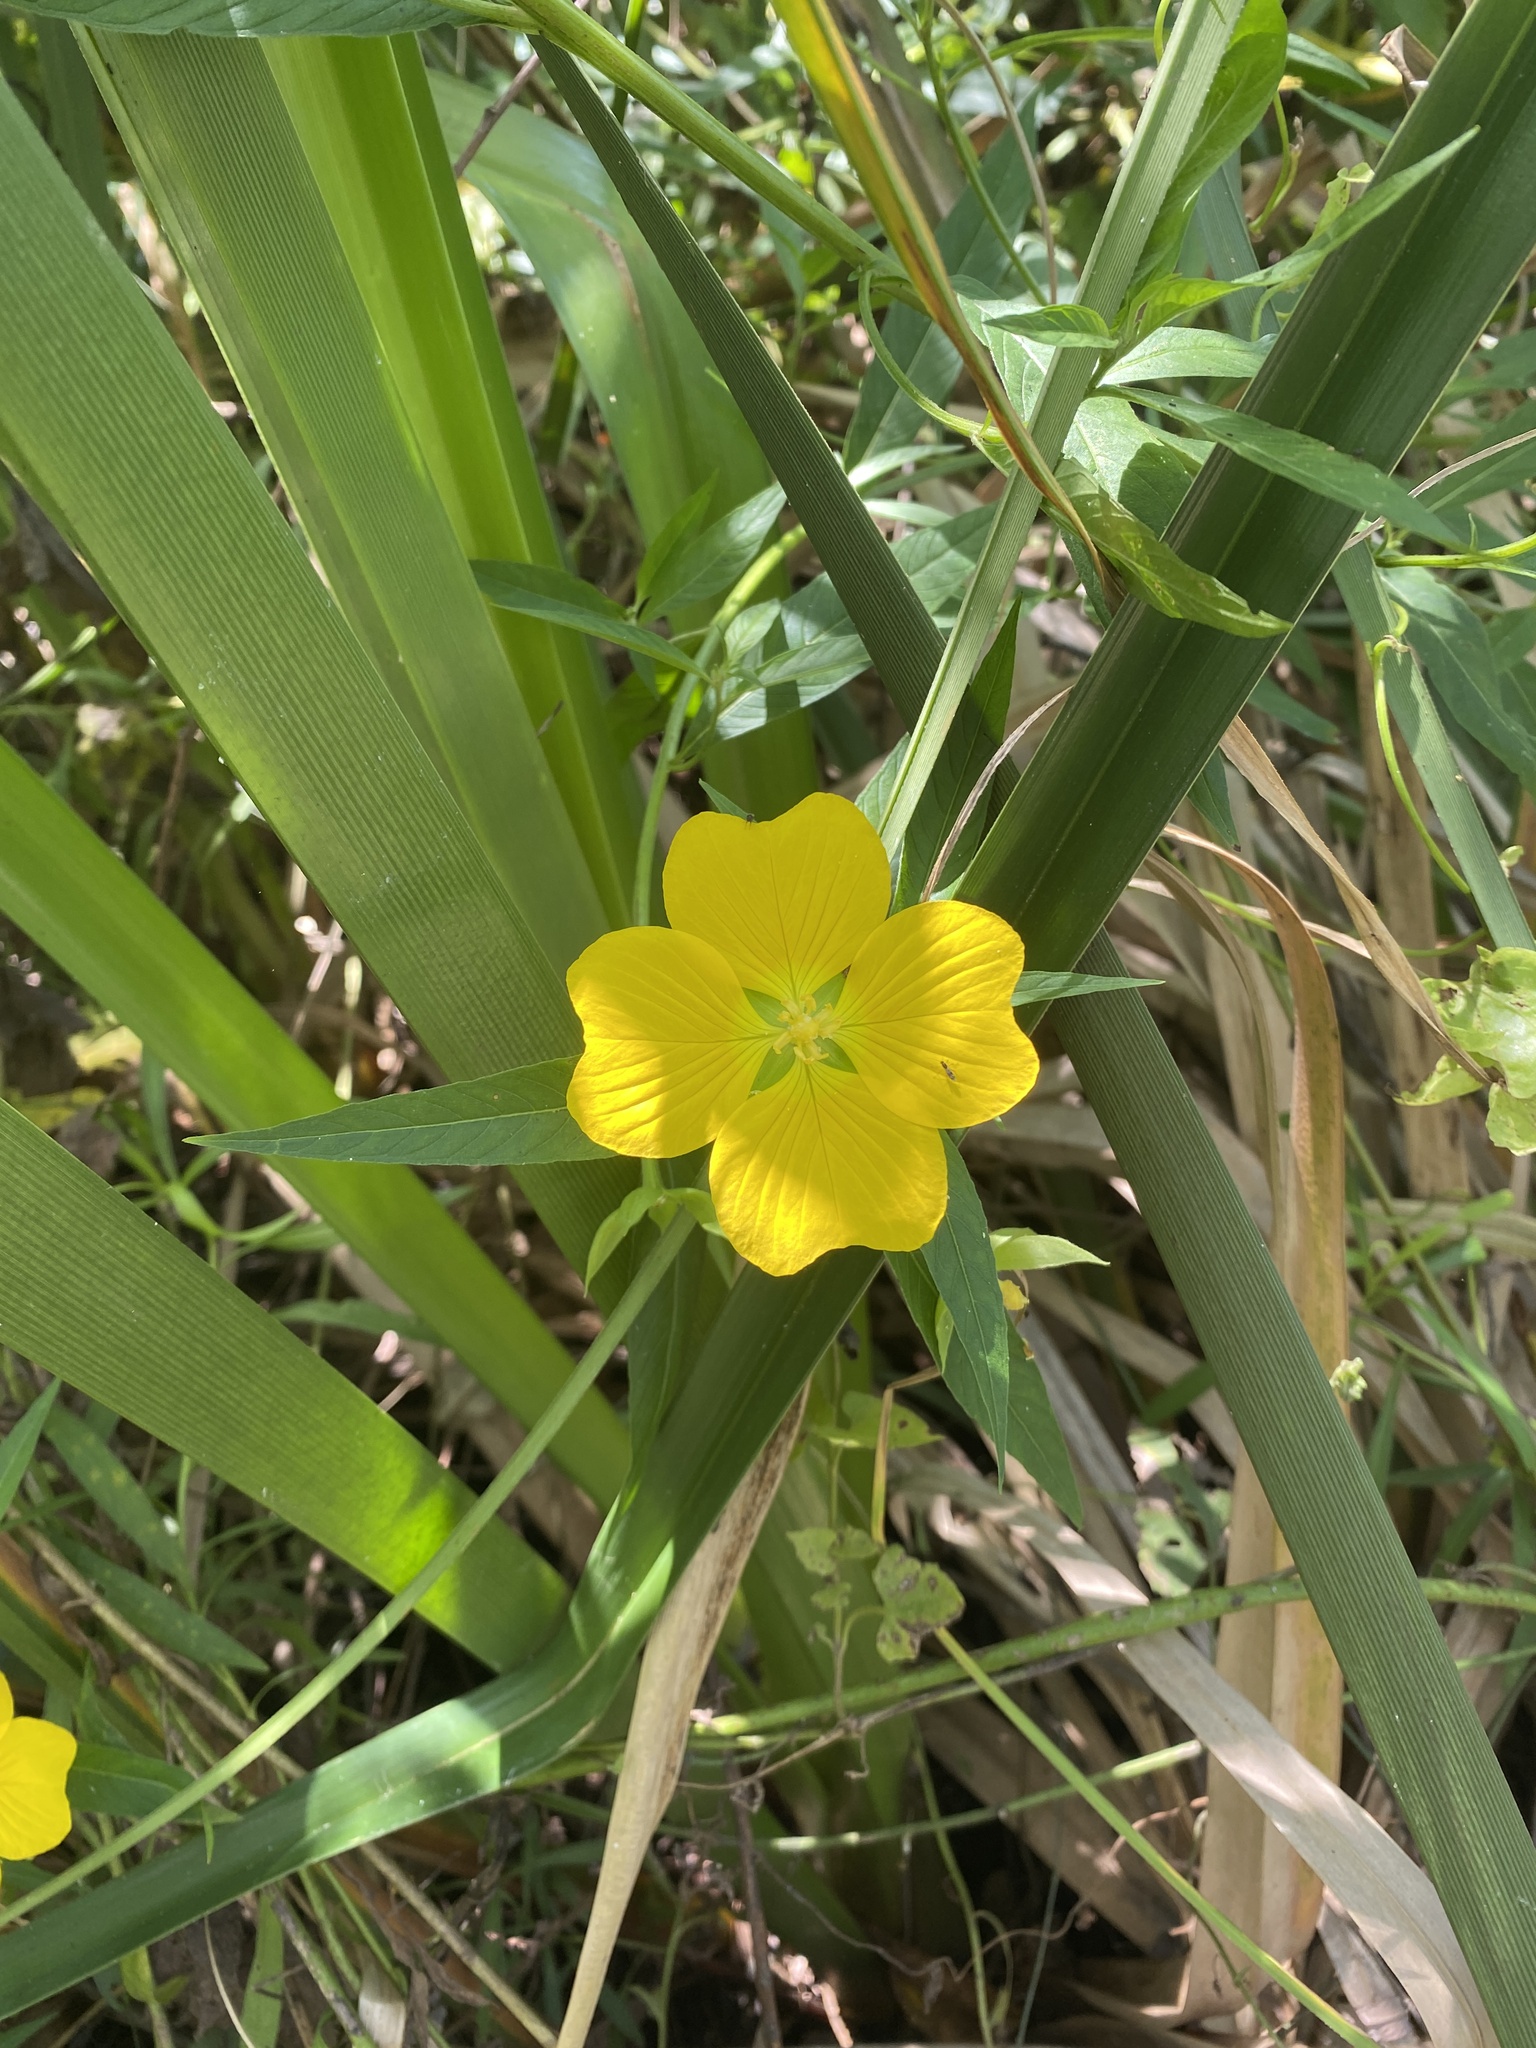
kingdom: Plantae
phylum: Tracheophyta
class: Magnoliopsida
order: Myrtales
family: Onagraceae
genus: Ludwigia
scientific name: Ludwigia bonariensis
